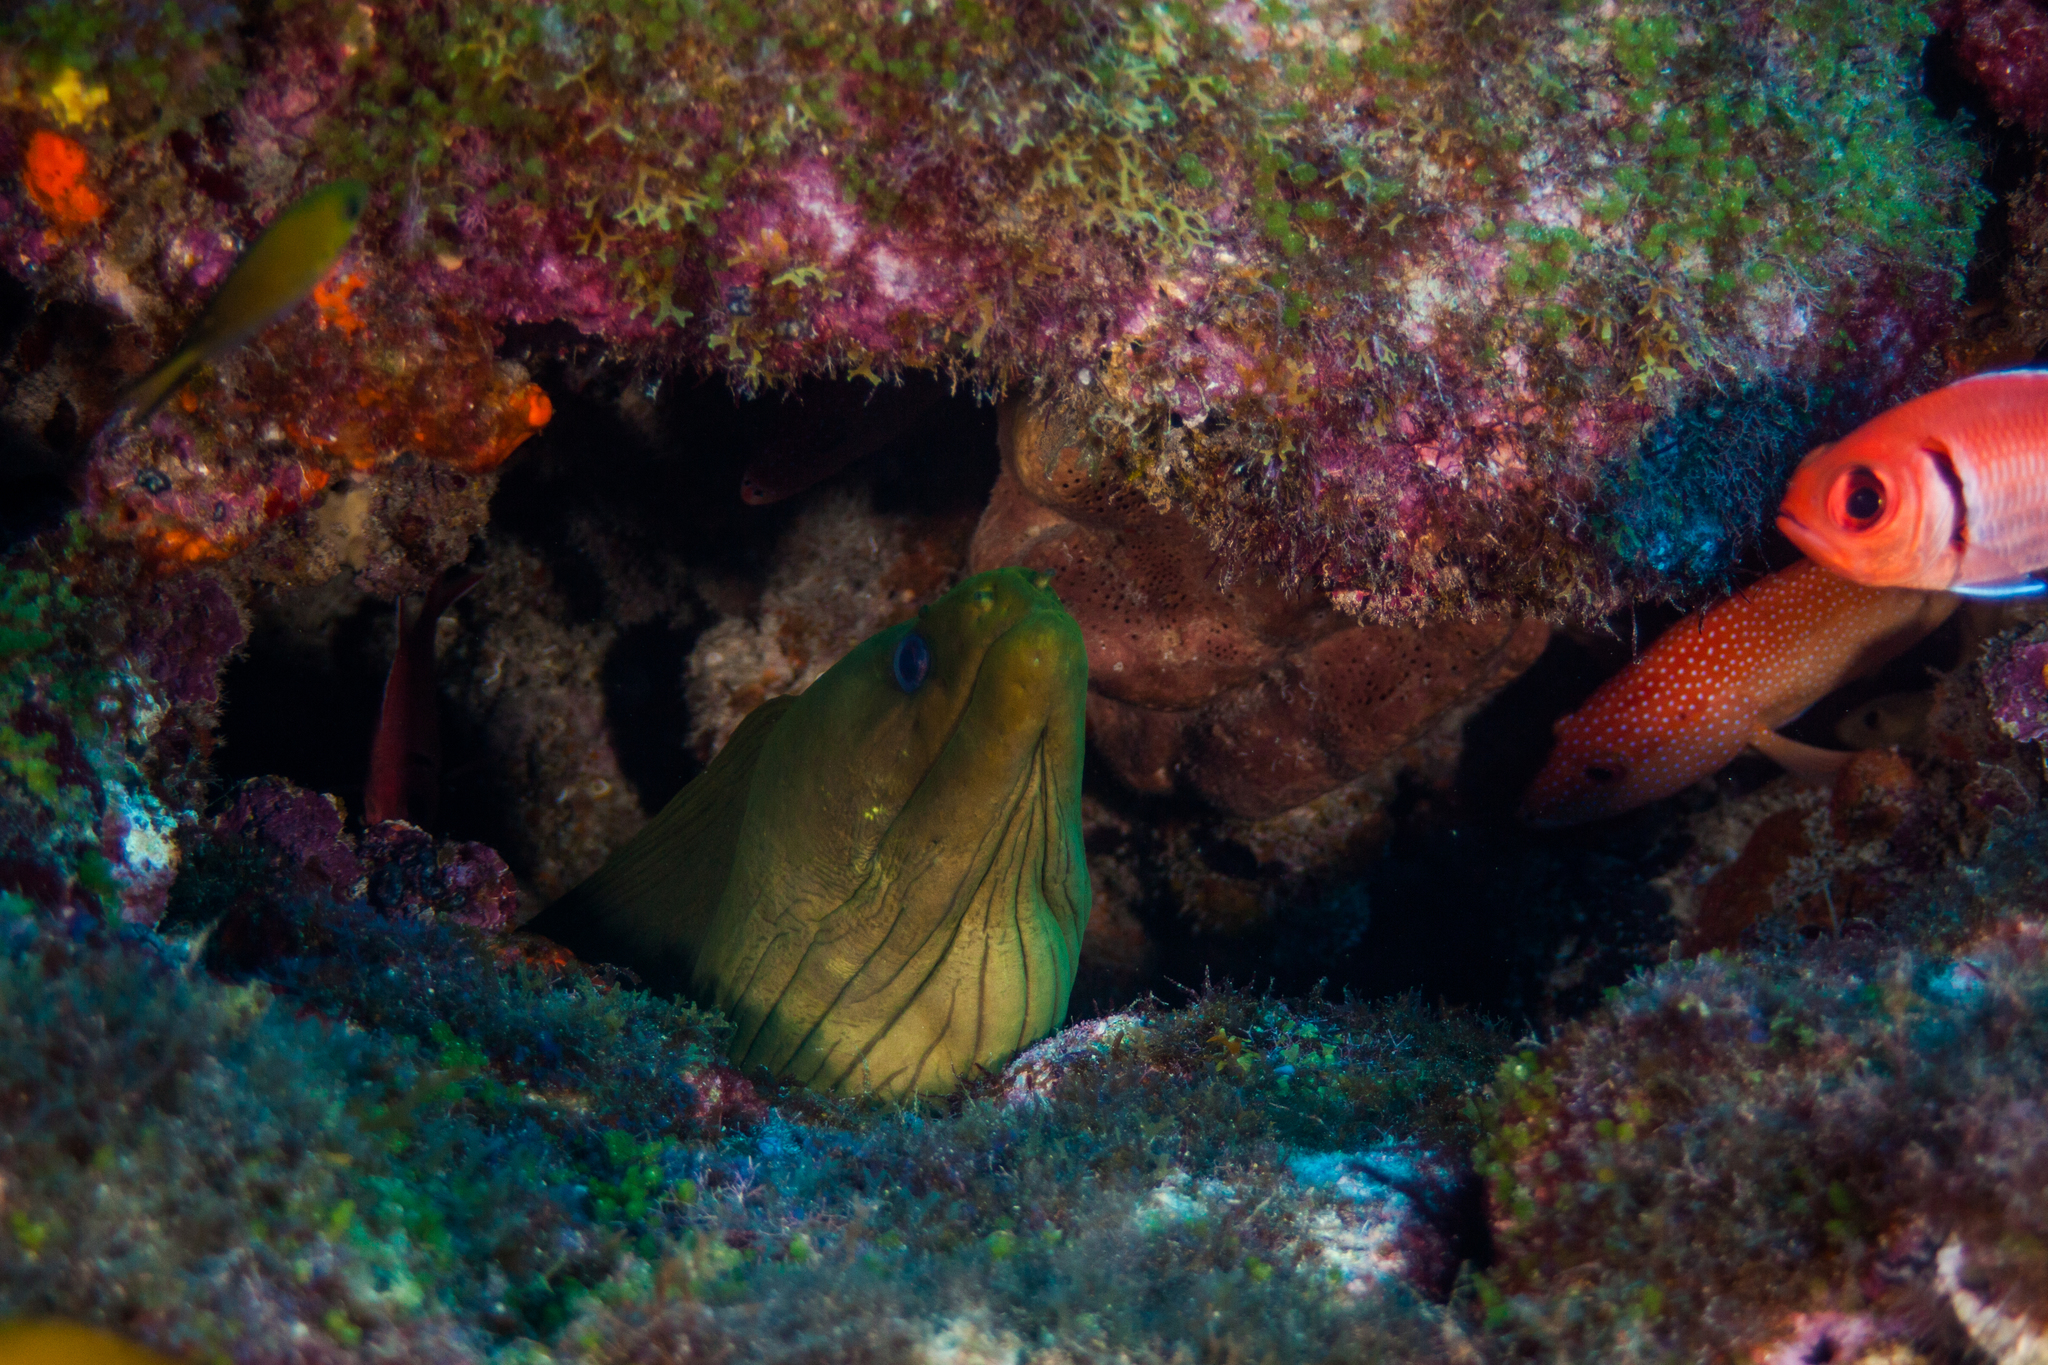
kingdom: Animalia
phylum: Chordata
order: Anguilliformes
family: Muraenidae
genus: Gymnothorax
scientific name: Gymnothorax funebris
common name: Green moray
